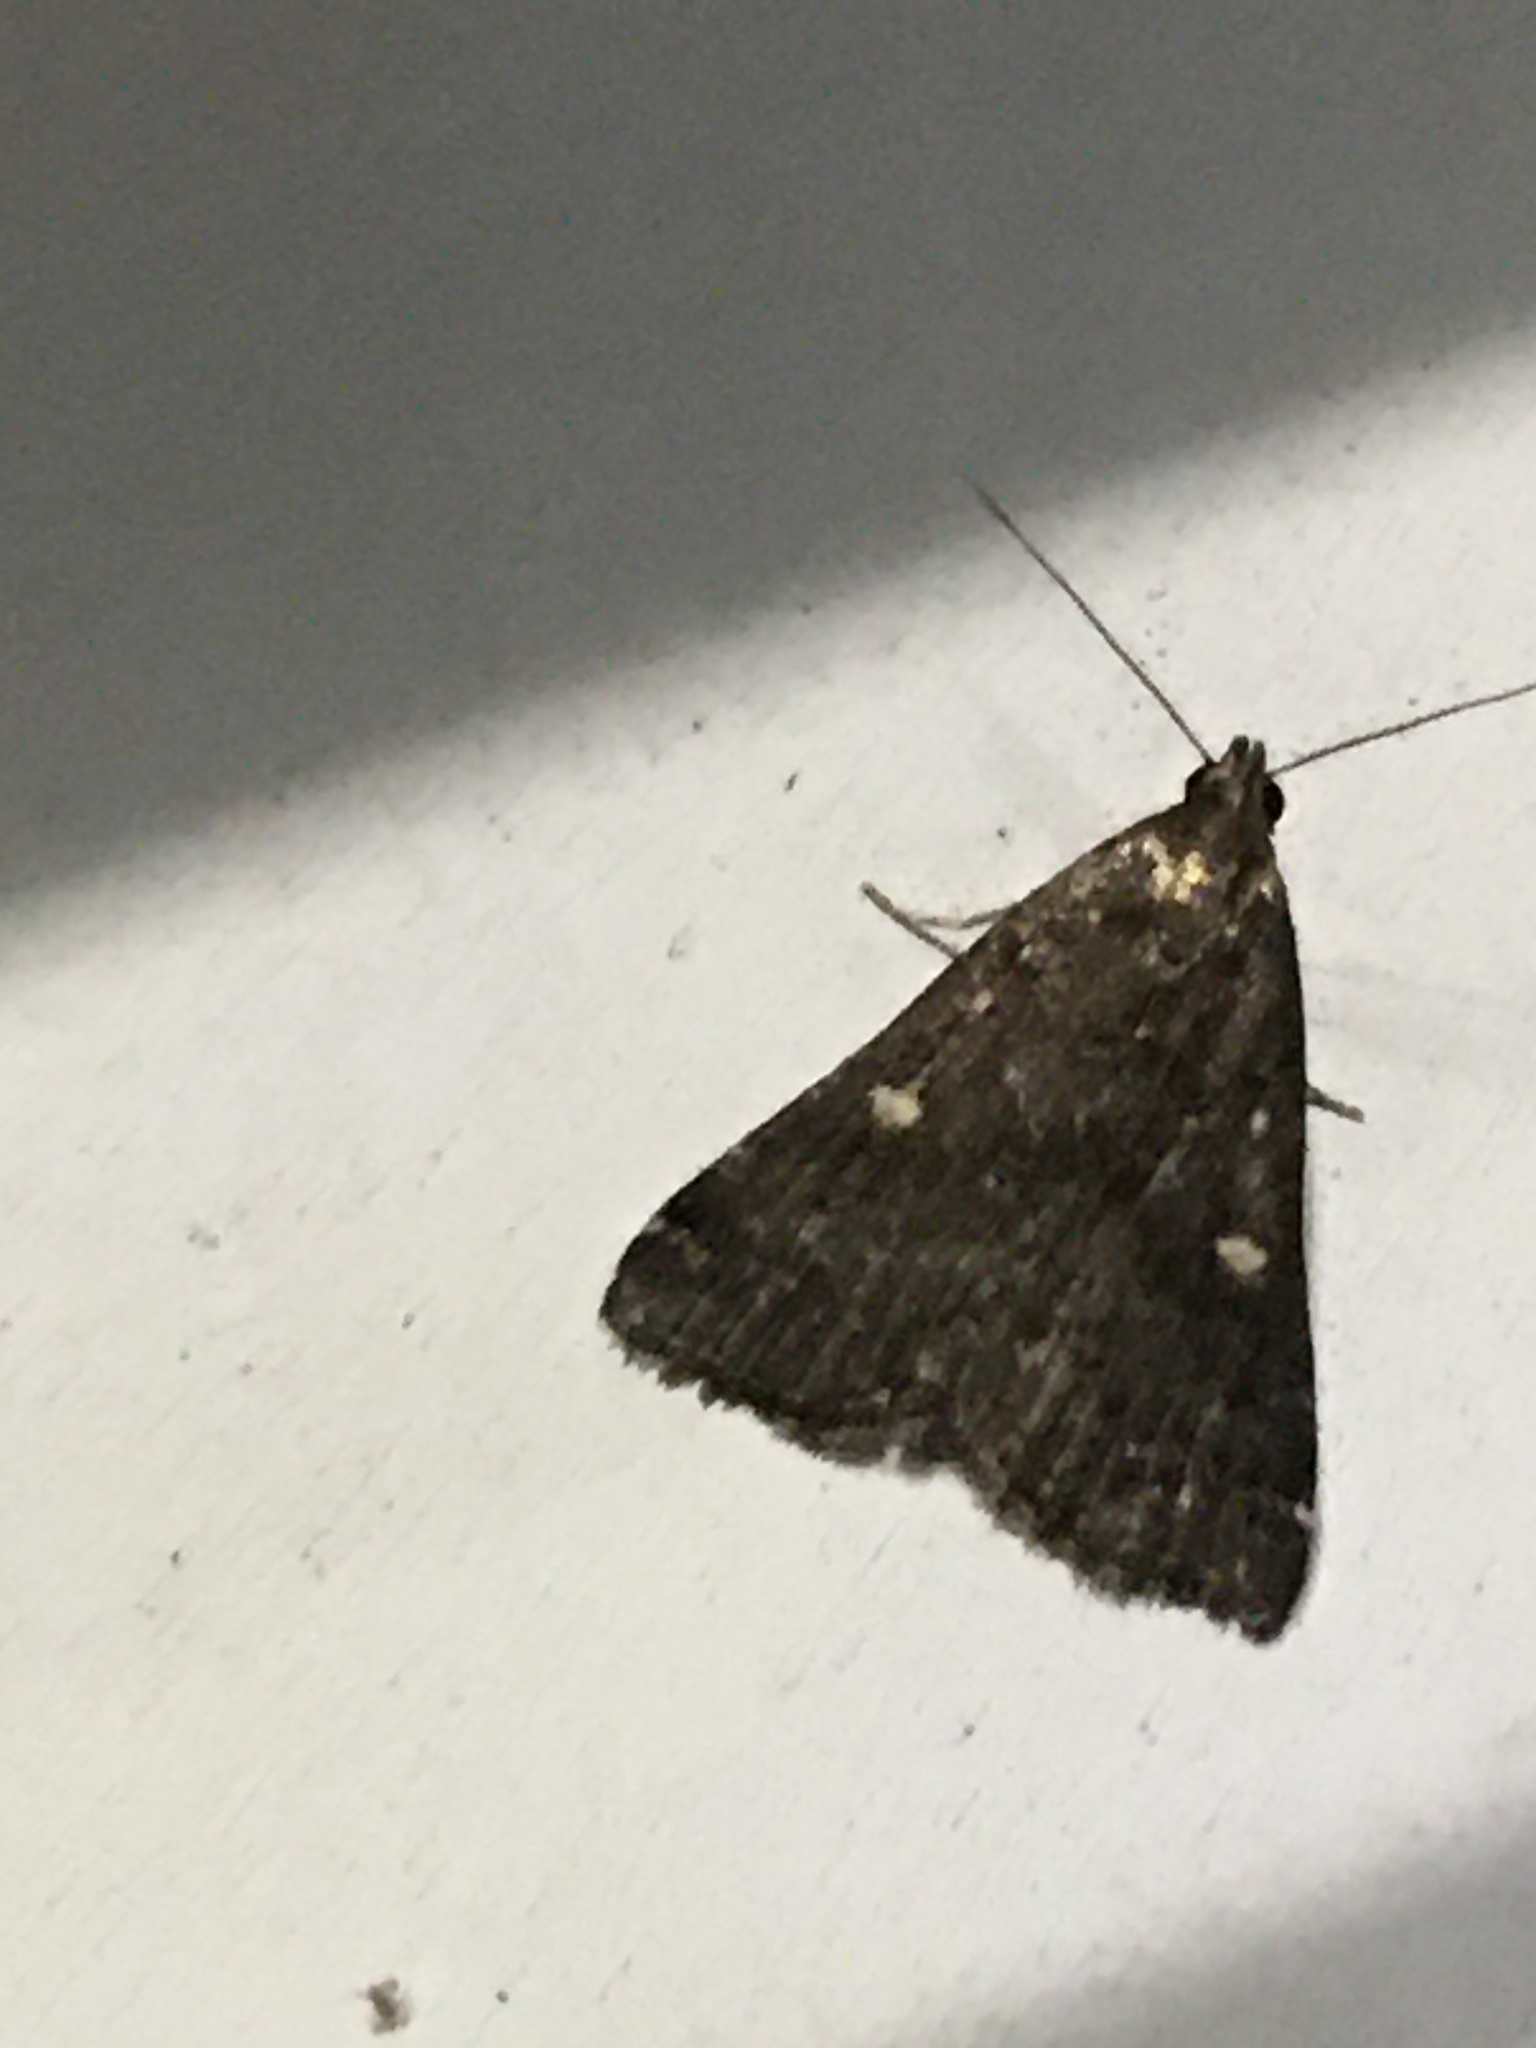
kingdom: Animalia
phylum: Arthropoda
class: Insecta
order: Lepidoptera
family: Erebidae
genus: Tetanolita
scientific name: Tetanolita mynesalis
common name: Smoky tetanolita moth
